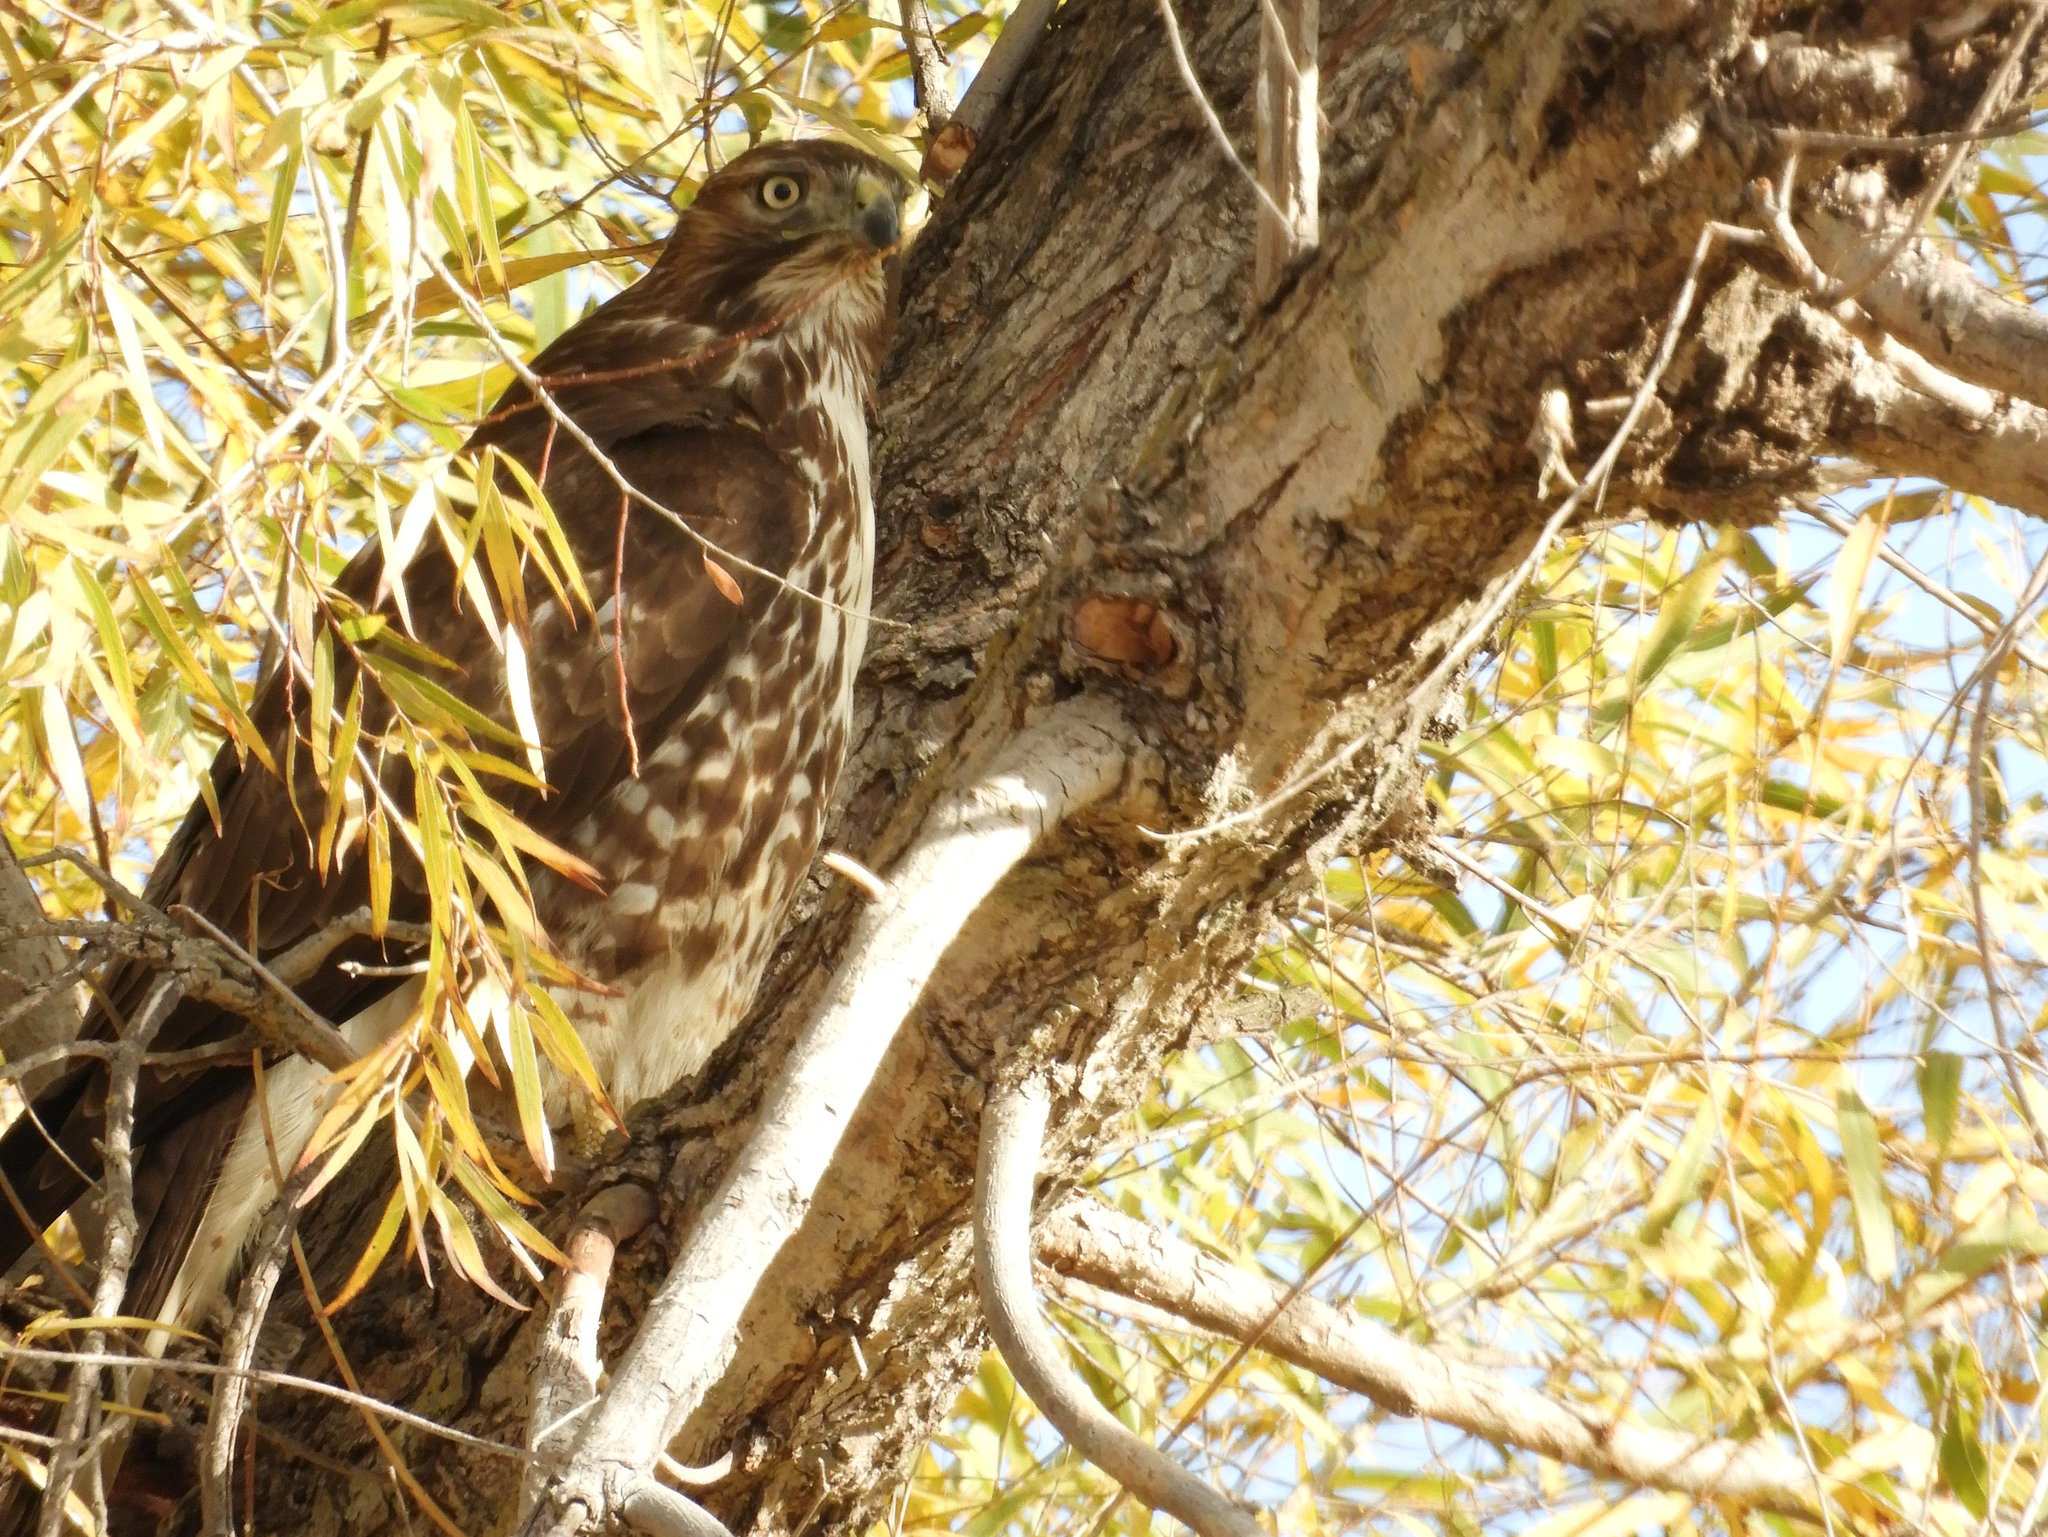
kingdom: Animalia
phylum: Chordata
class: Aves
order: Accipitriformes
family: Accipitridae
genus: Buteo
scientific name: Buteo jamaicensis
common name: Red-tailed hawk
